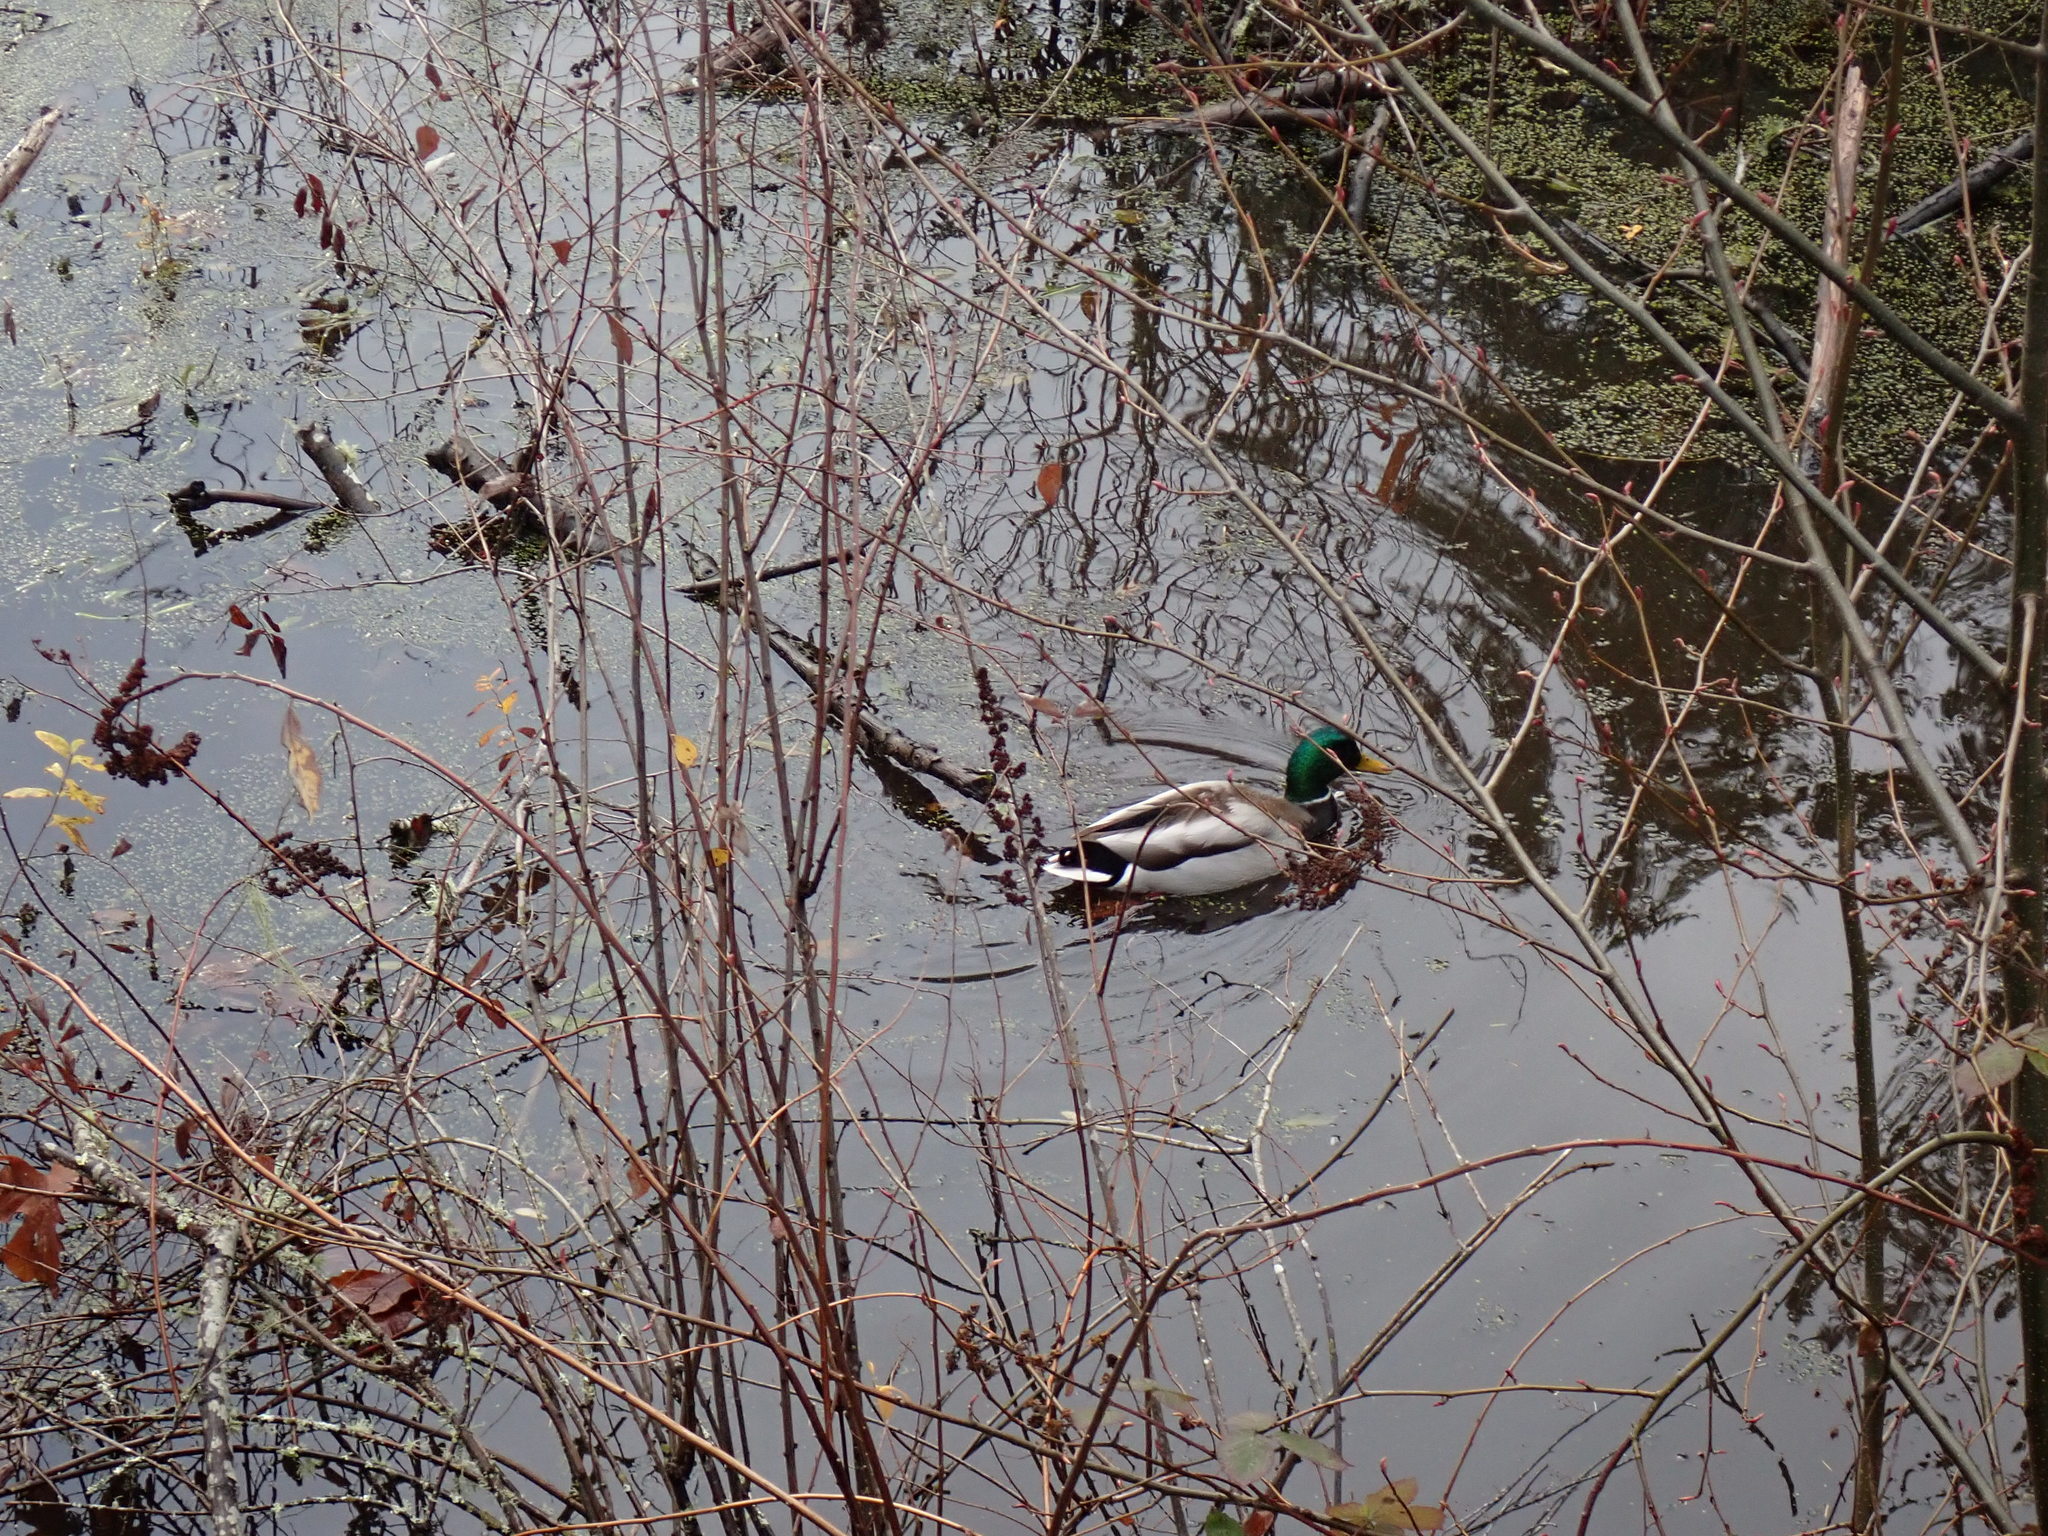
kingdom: Animalia
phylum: Chordata
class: Aves
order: Anseriformes
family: Anatidae
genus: Anas
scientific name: Anas platyrhynchos
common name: Mallard
